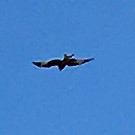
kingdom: Animalia
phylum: Chordata
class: Aves
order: Accipitriformes
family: Accipitridae
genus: Milvus
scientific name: Milvus milvus
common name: Red kite
